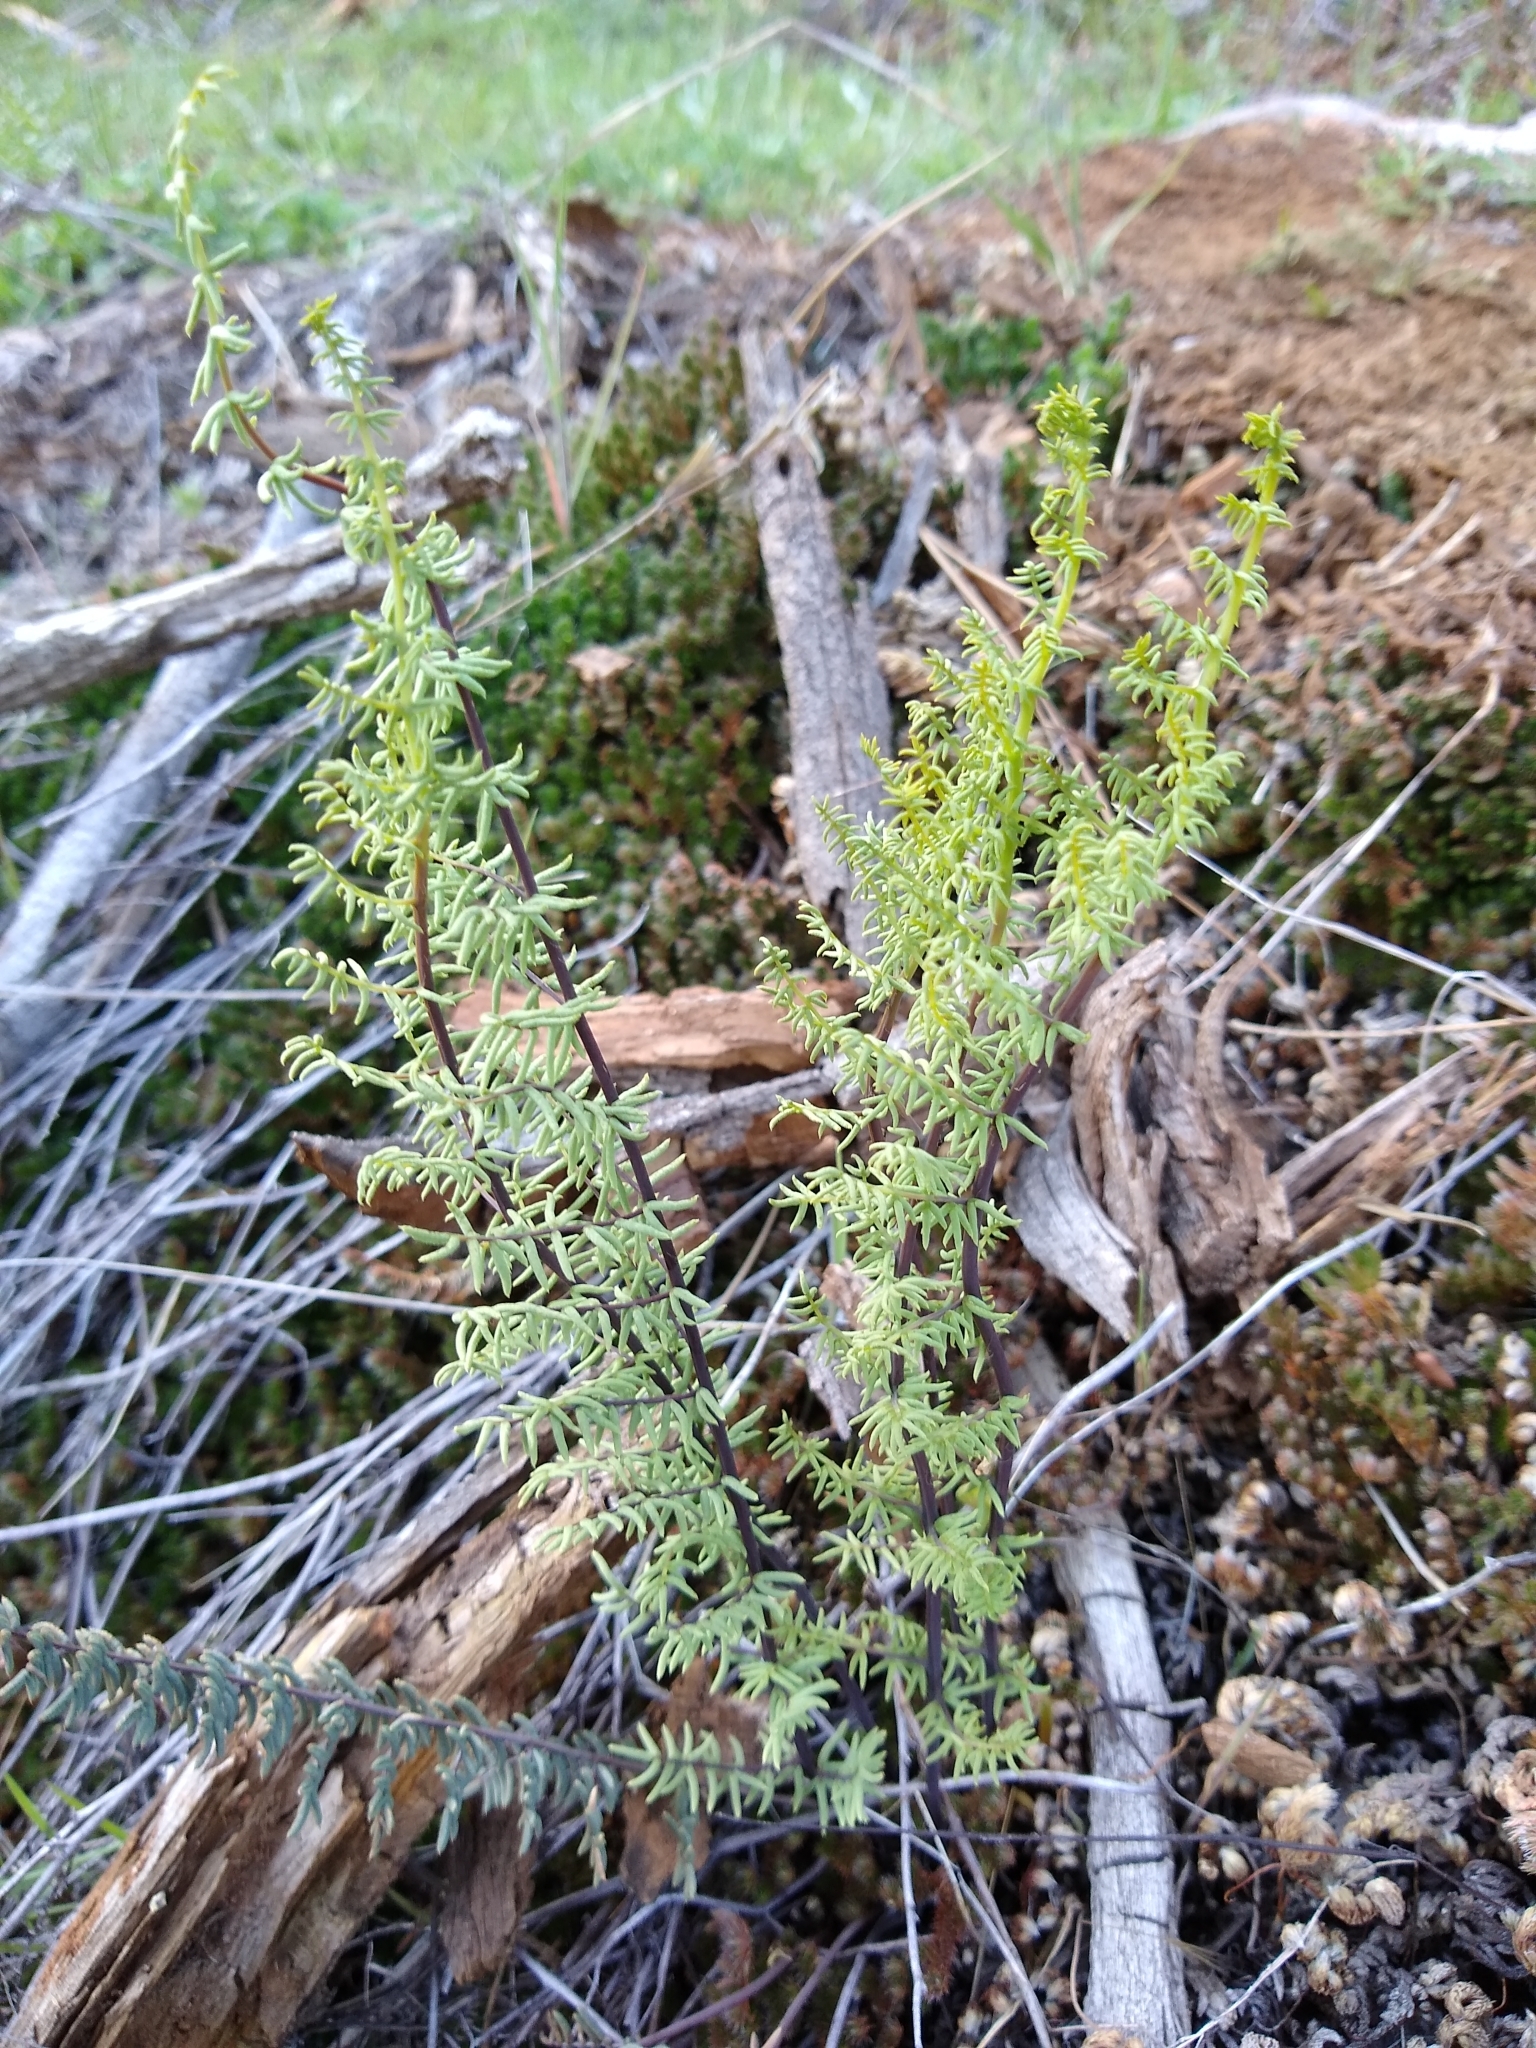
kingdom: Plantae
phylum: Tracheophyta
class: Polypodiopsida
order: Polypodiales
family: Pteridaceae
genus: Pellaea
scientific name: Pellaea mucronata
